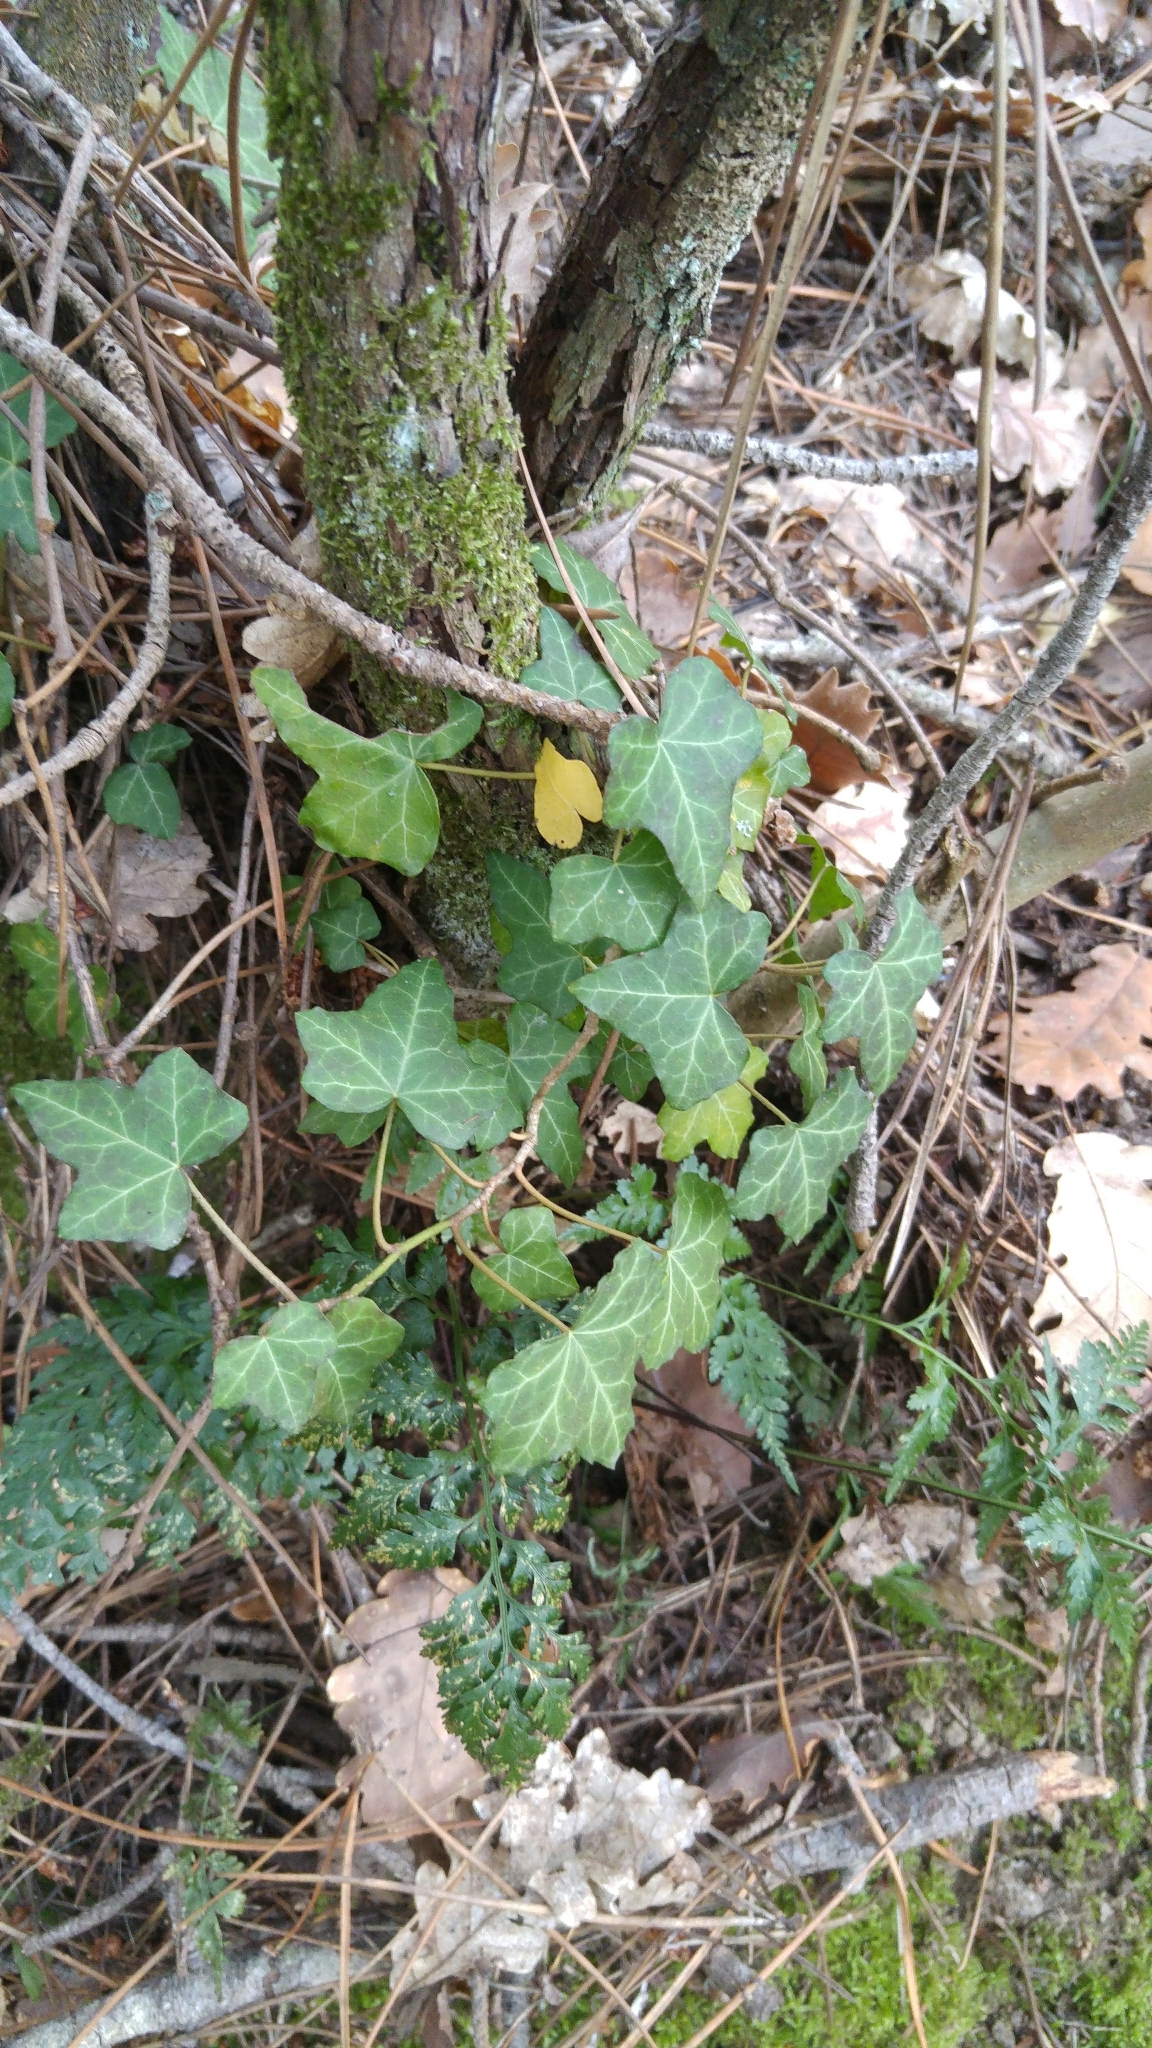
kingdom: Plantae
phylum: Tracheophyta
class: Magnoliopsida
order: Apiales
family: Araliaceae
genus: Hedera
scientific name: Hedera helix
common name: Ivy
